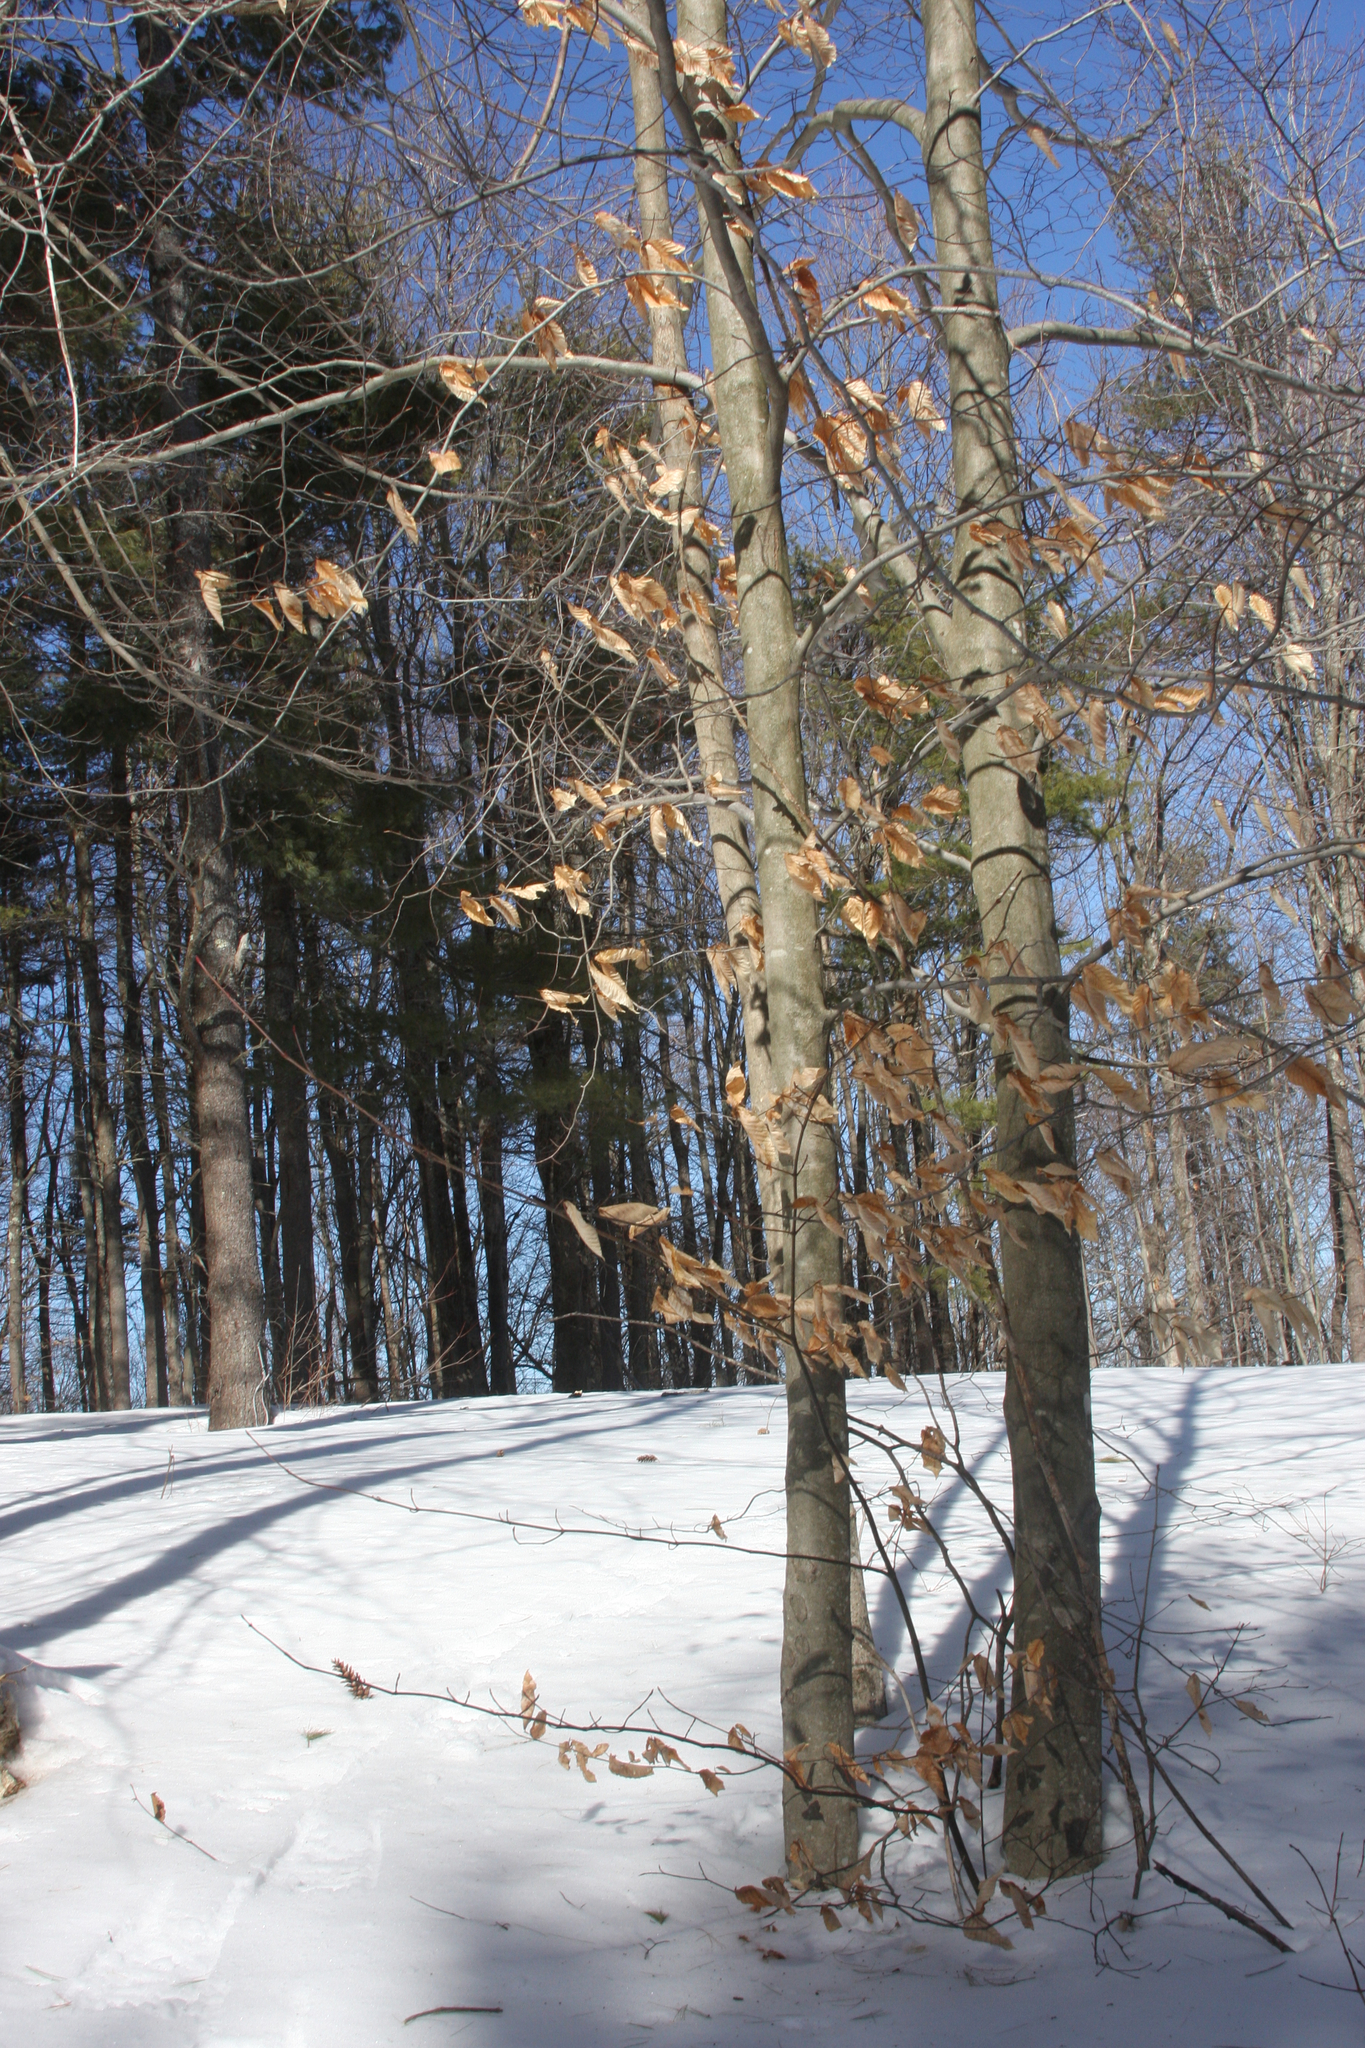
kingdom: Plantae
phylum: Tracheophyta
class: Magnoliopsida
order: Fagales
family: Fagaceae
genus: Fagus
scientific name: Fagus grandifolia
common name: American beech
